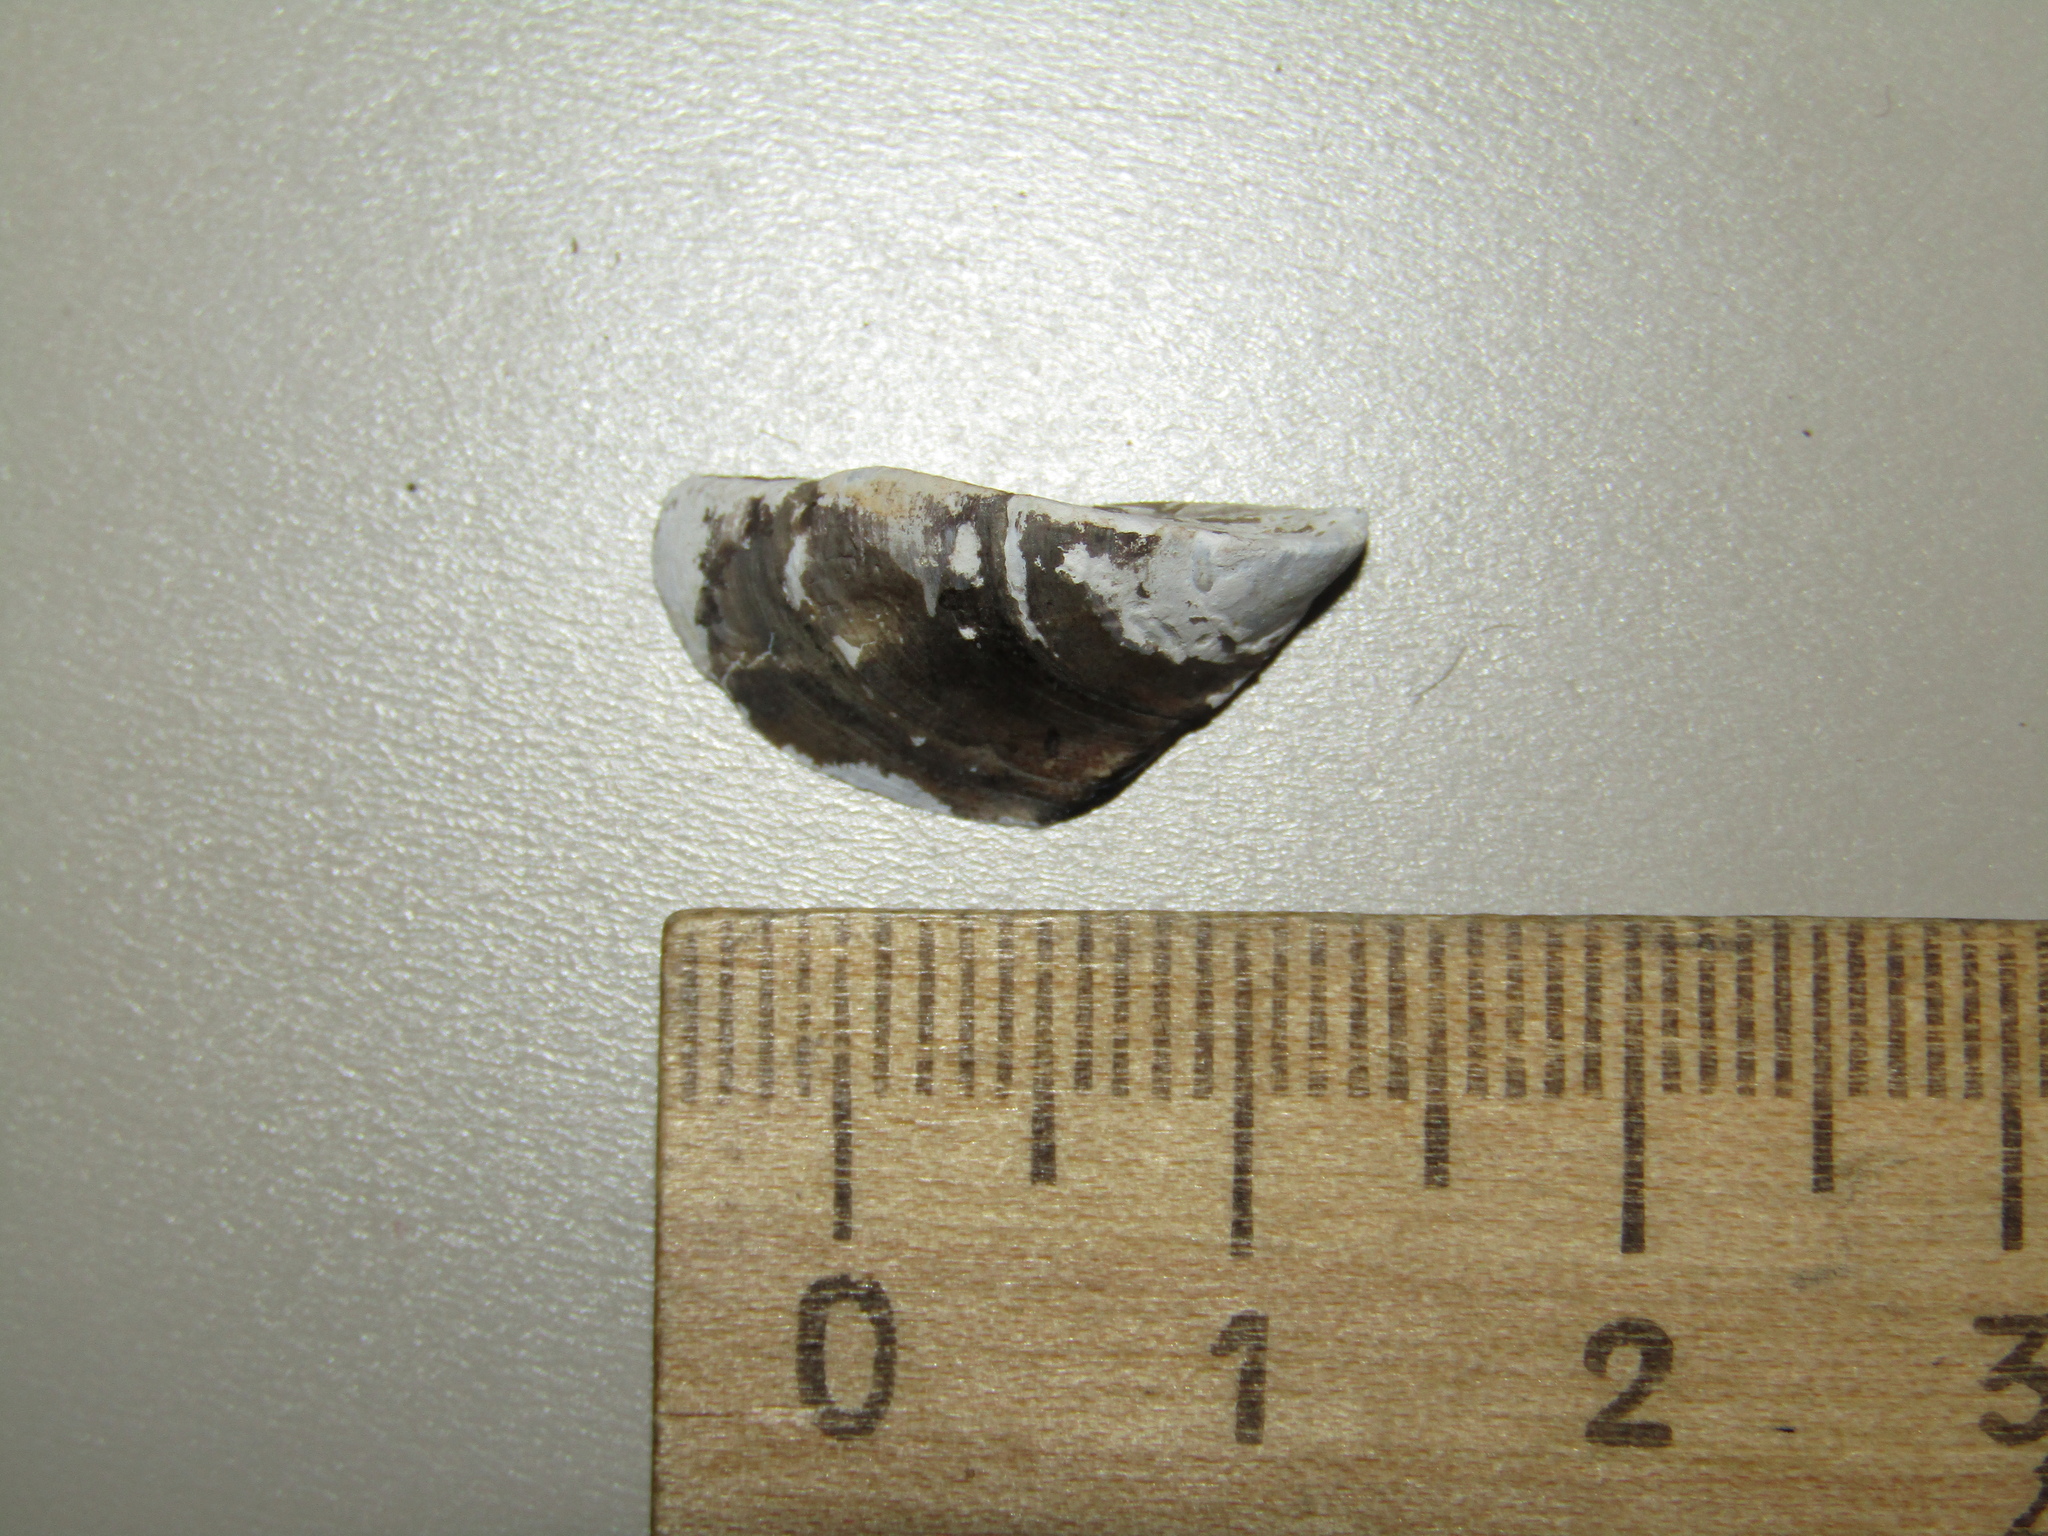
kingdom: Animalia
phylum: Mollusca
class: Bivalvia
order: Myida
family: Dreissenidae
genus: Dreissena
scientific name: Dreissena polymorpha
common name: Zebra mussel
